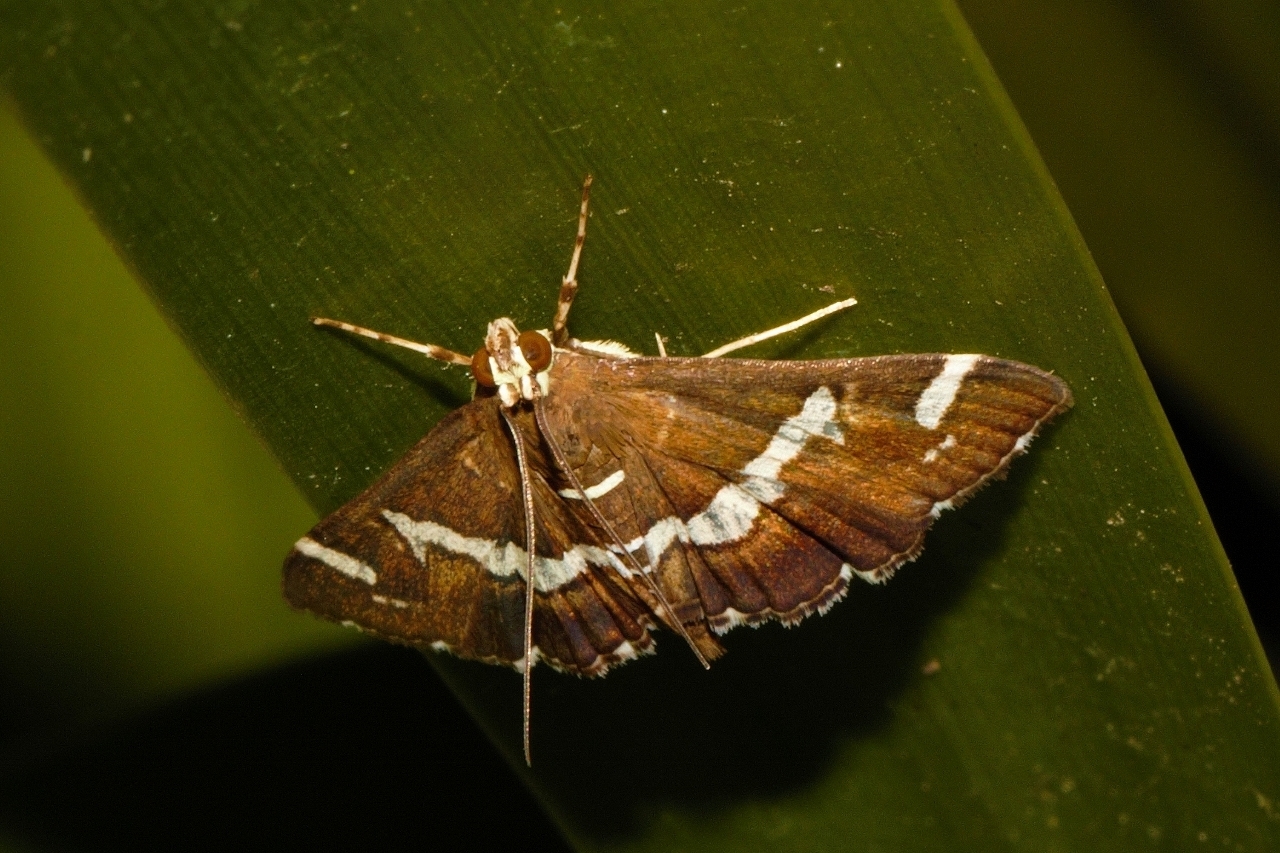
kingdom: Animalia
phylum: Arthropoda
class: Insecta
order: Lepidoptera
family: Crambidae
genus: Spoladea
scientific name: Spoladea recurvalis
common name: Beet webworm moth
